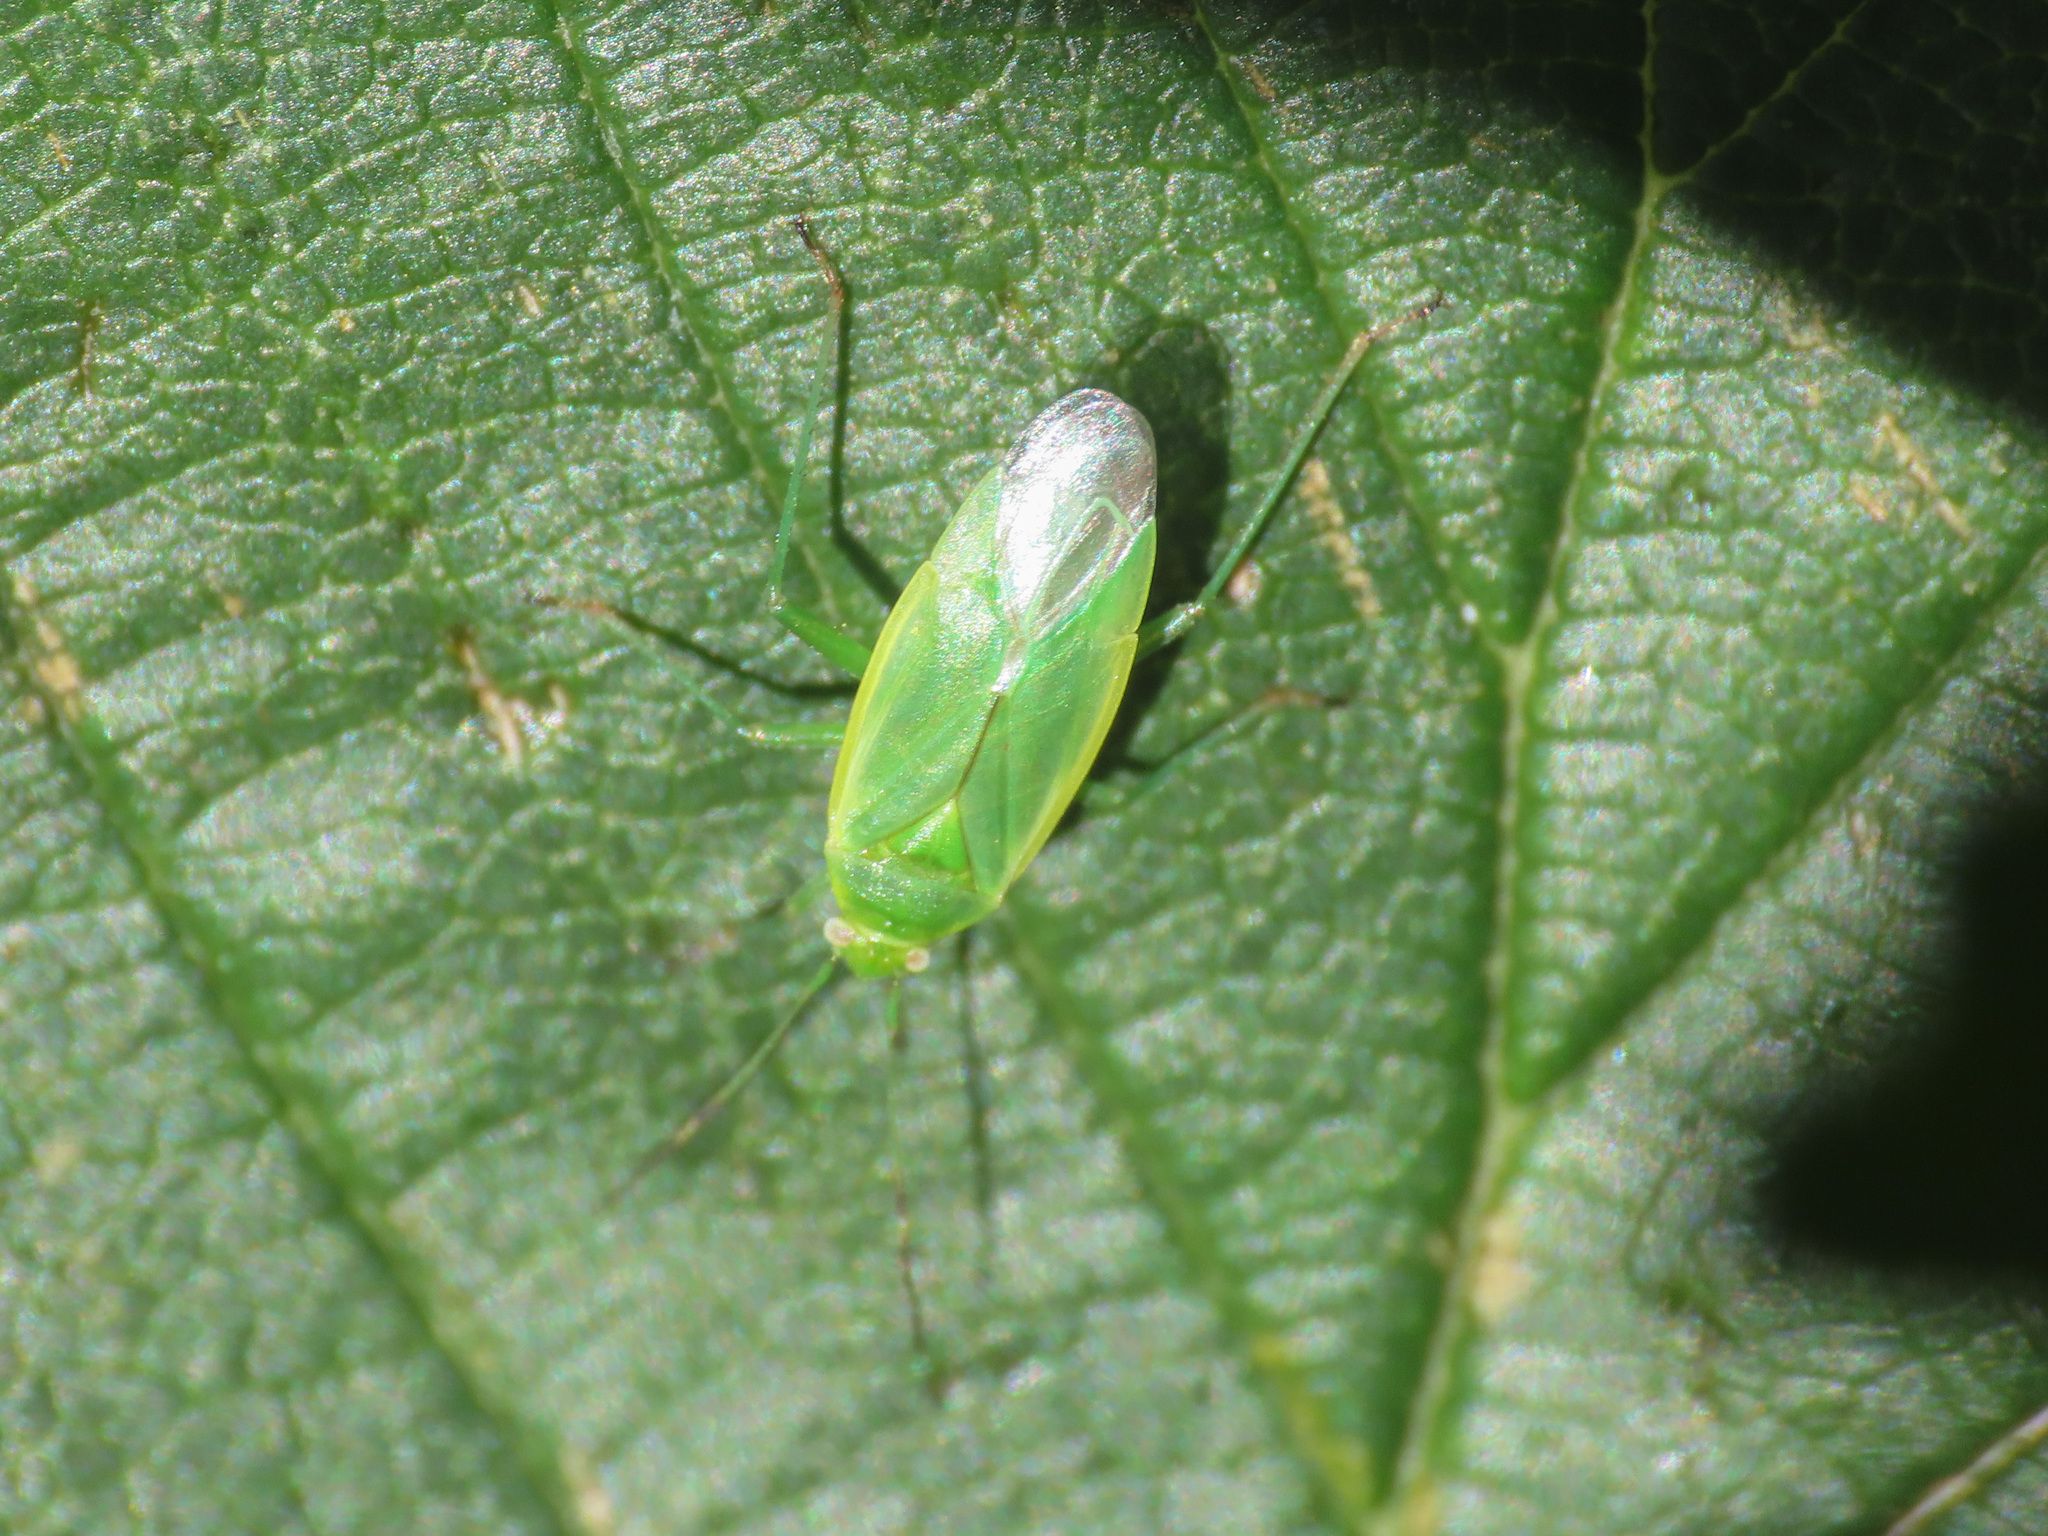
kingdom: Animalia
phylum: Arthropoda
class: Insecta
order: Hemiptera
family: Miridae
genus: Lygocoris
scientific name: Lygocoris rugicollis
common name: Apple capsid
